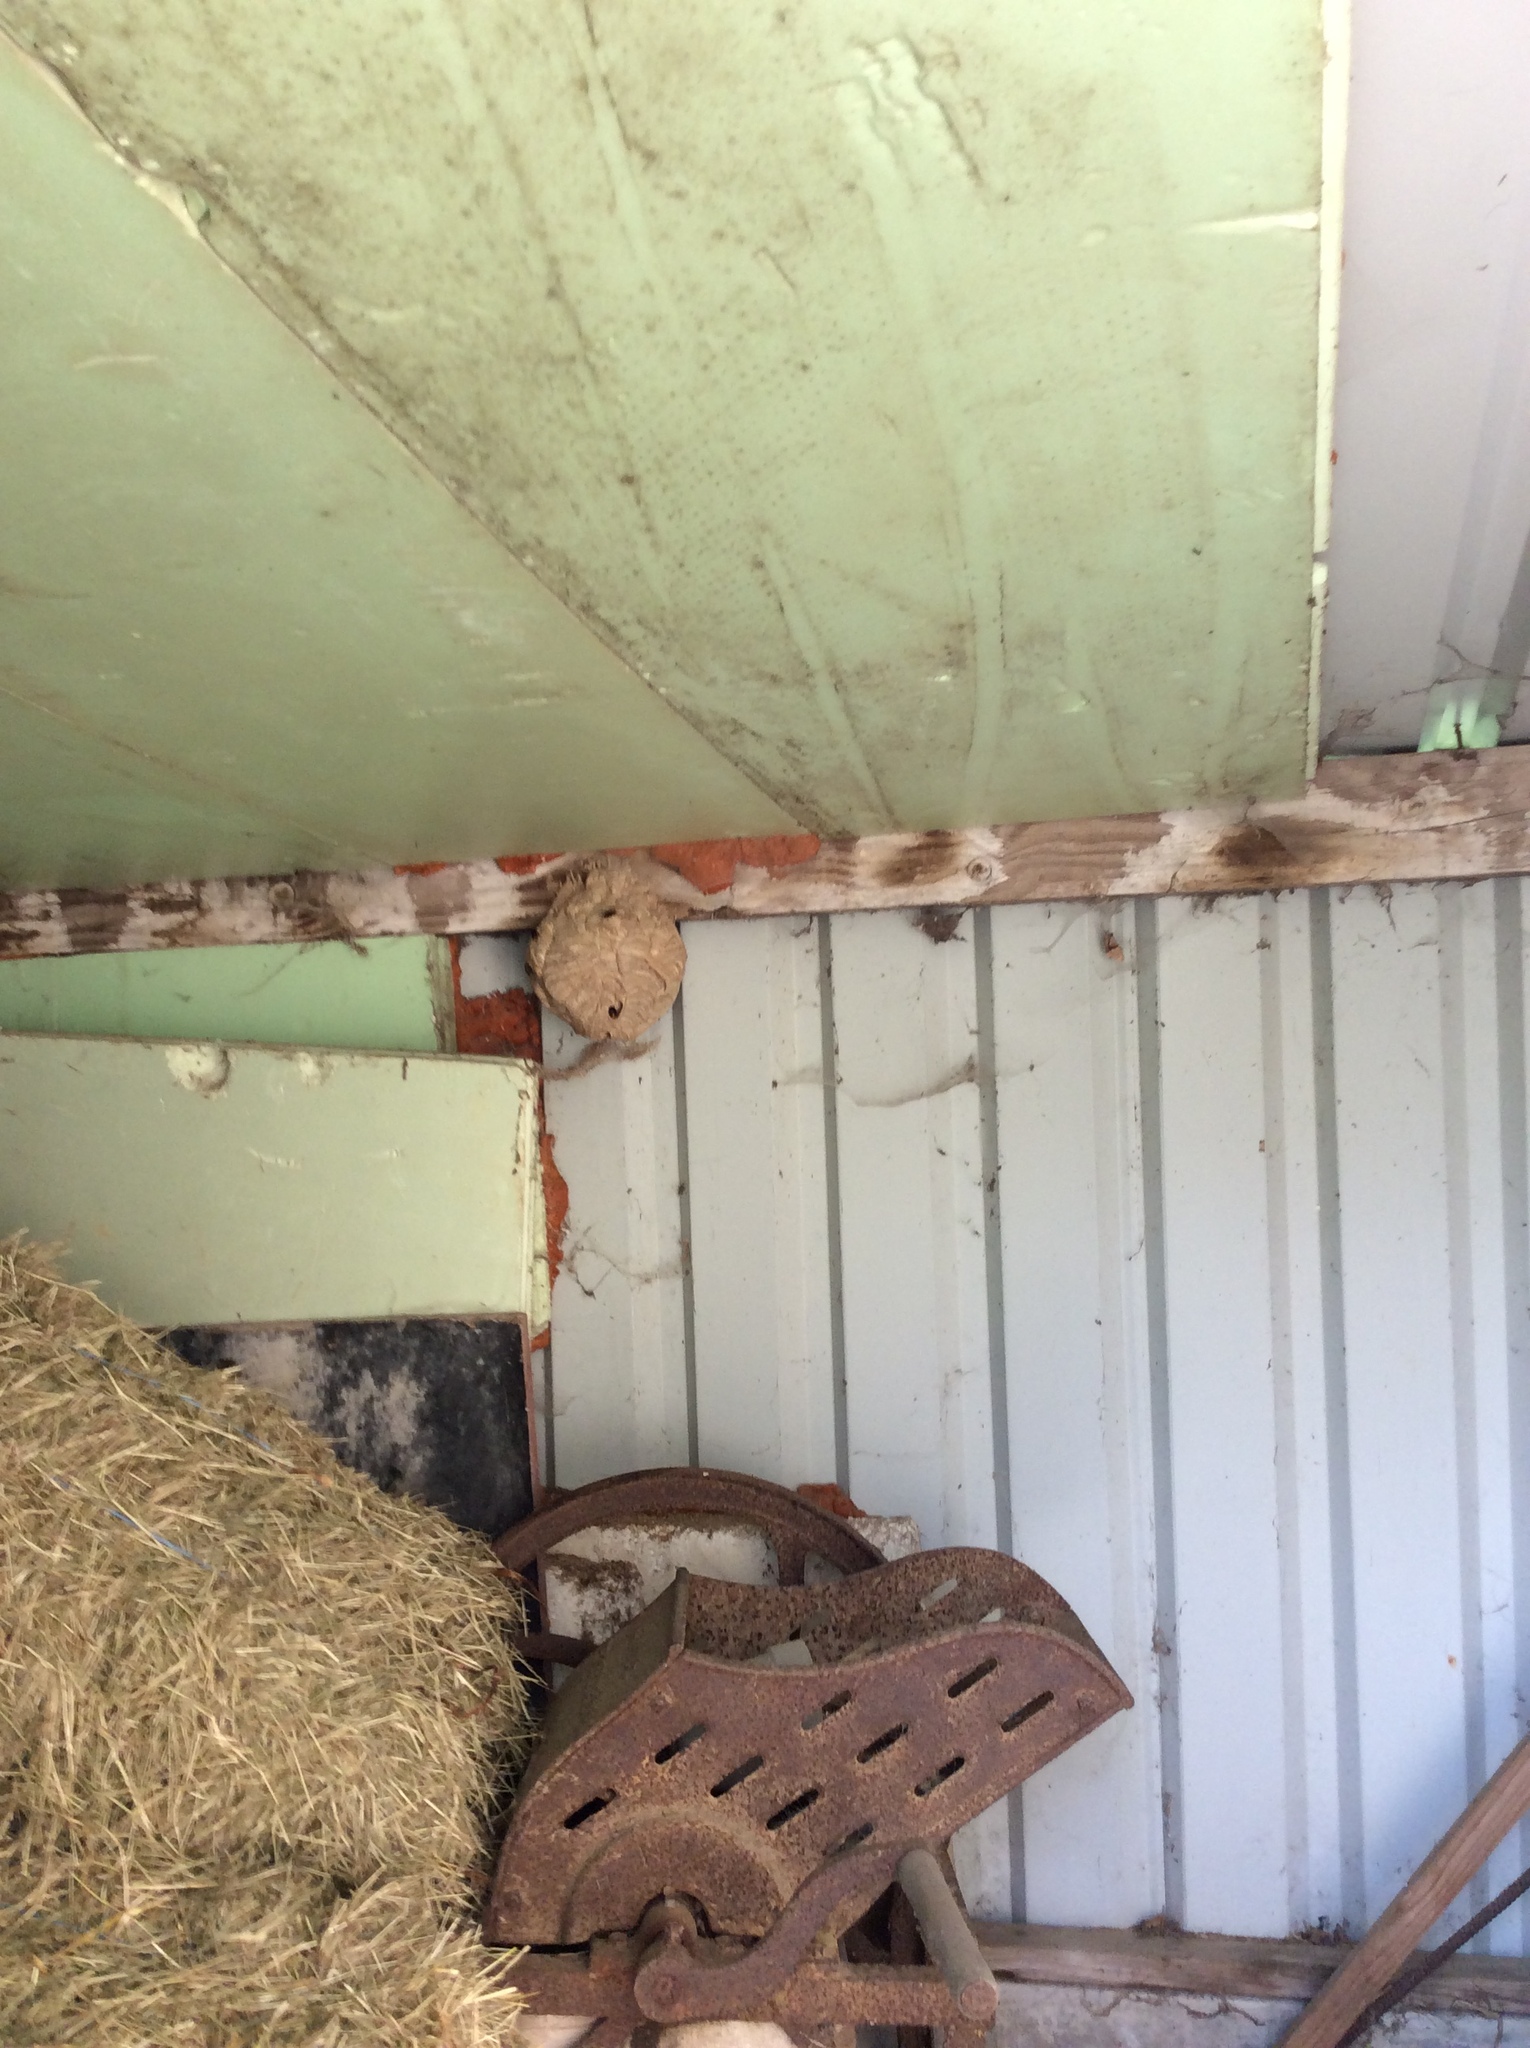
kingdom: Animalia
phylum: Arthropoda
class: Insecta
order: Hymenoptera
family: Vespidae
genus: Vespa
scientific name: Vespa velutina
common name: Asian hornet
